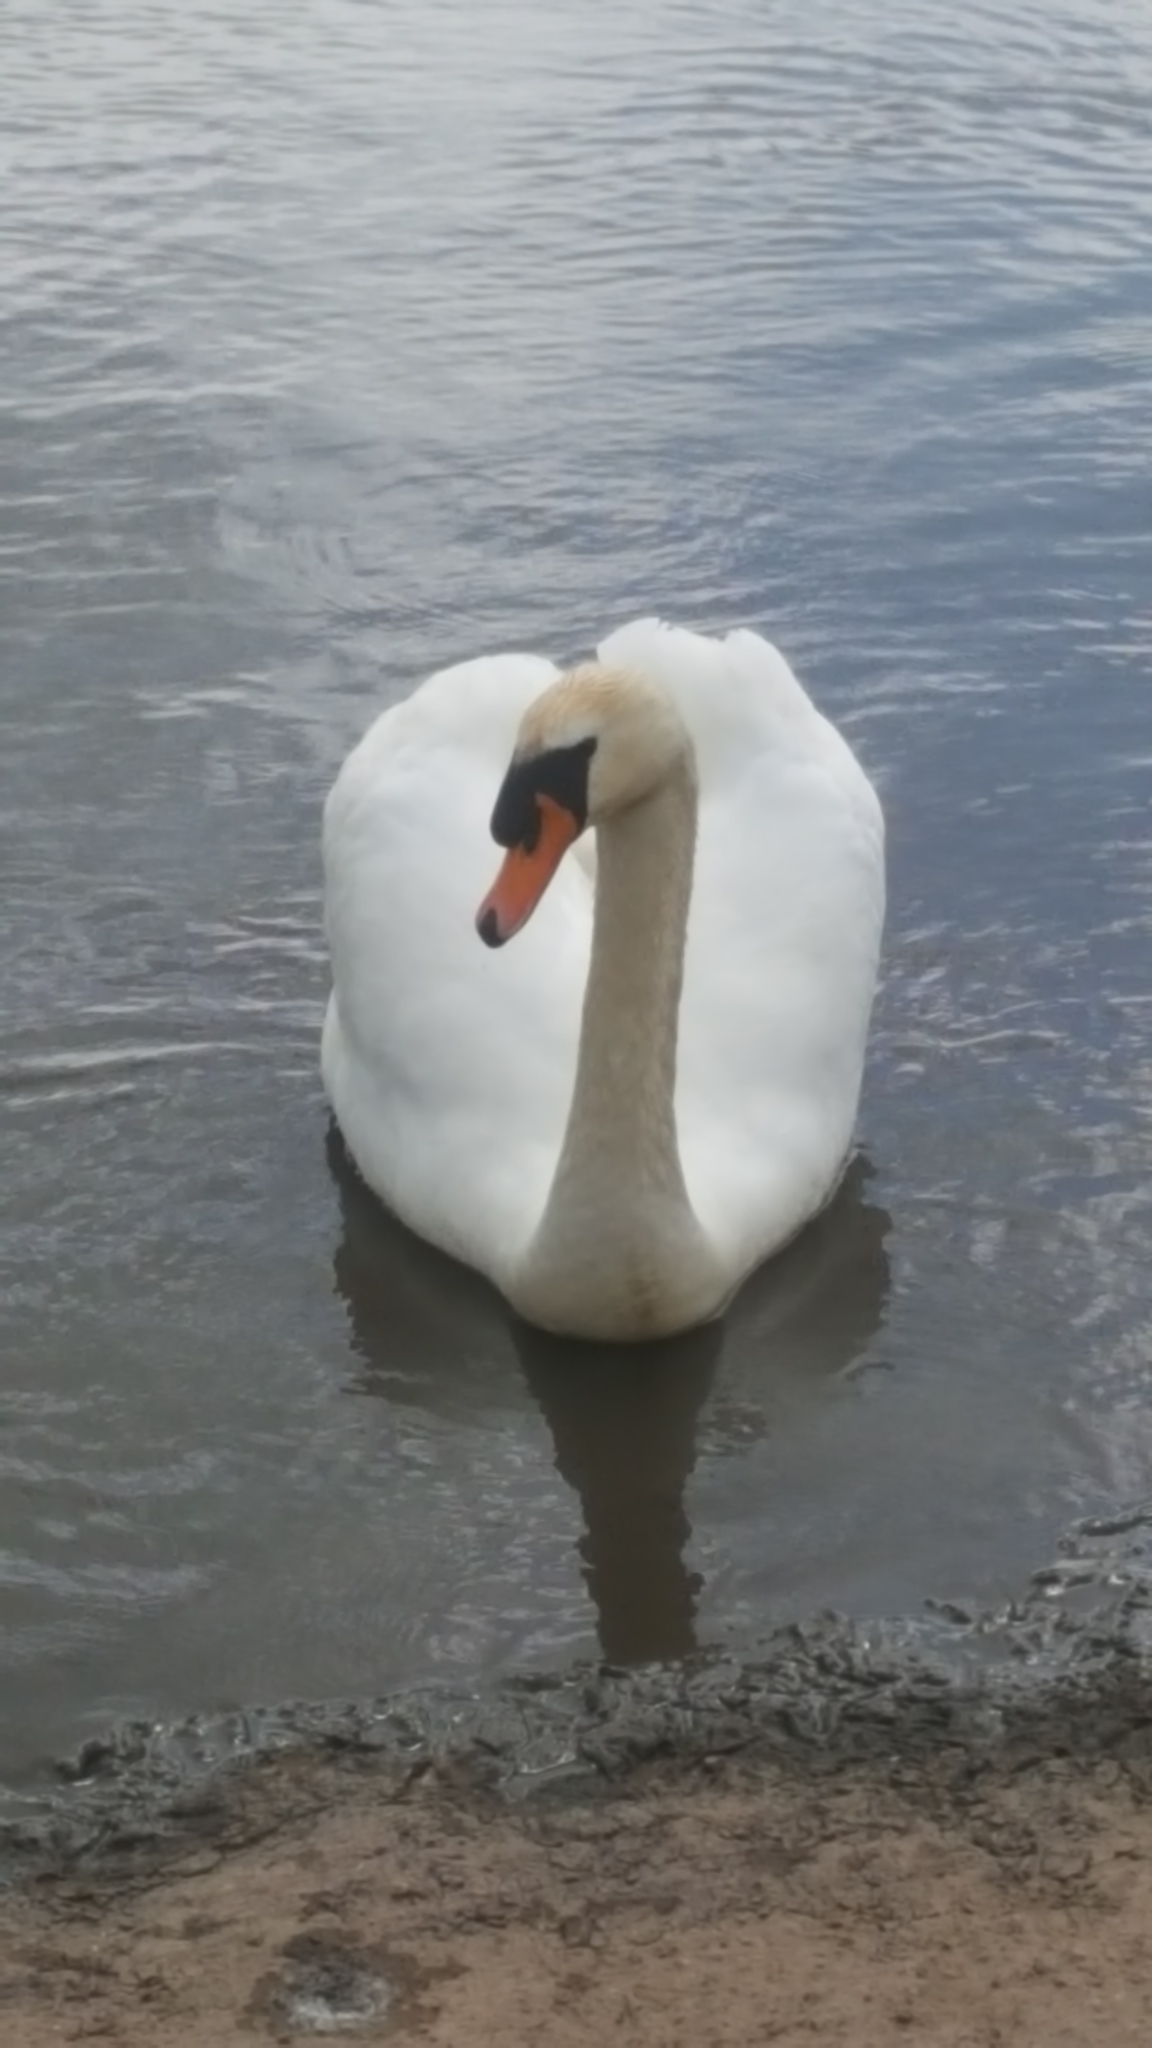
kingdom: Animalia
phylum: Chordata
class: Aves
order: Anseriformes
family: Anatidae
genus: Cygnus
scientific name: Cygnus olor
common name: Mute swan
